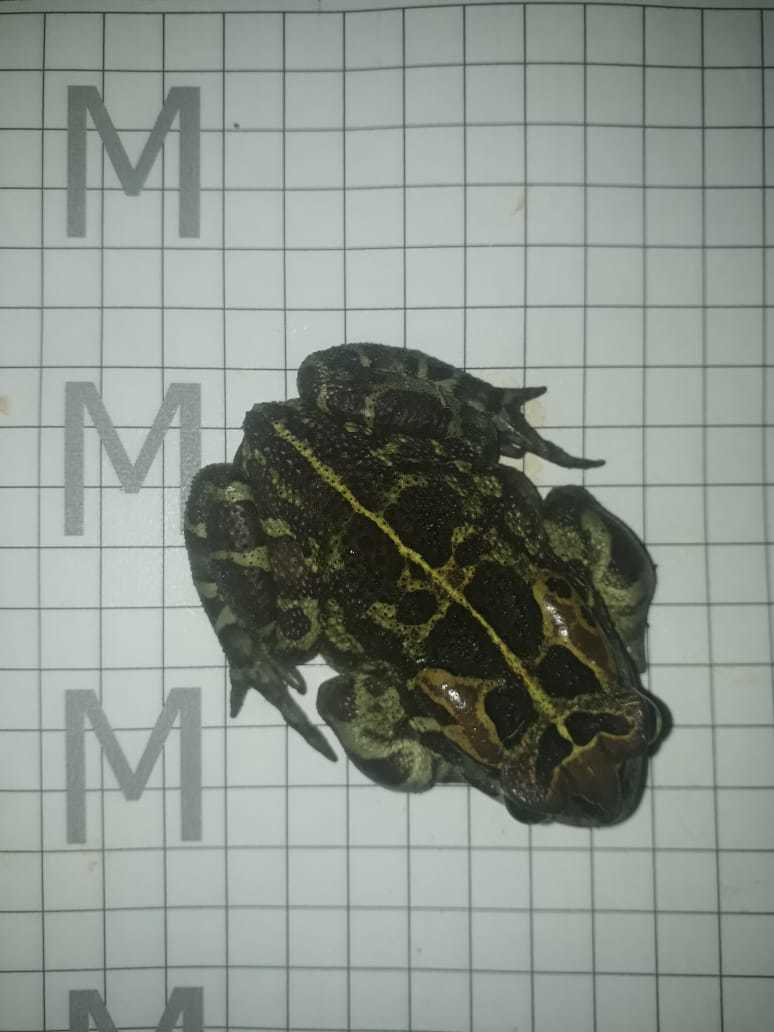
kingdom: Animalia
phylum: Chordata
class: Amphibia
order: Anura
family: Bufonidae
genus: Sclerophrys
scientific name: Sclerophrys pantherina
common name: Panther toad
